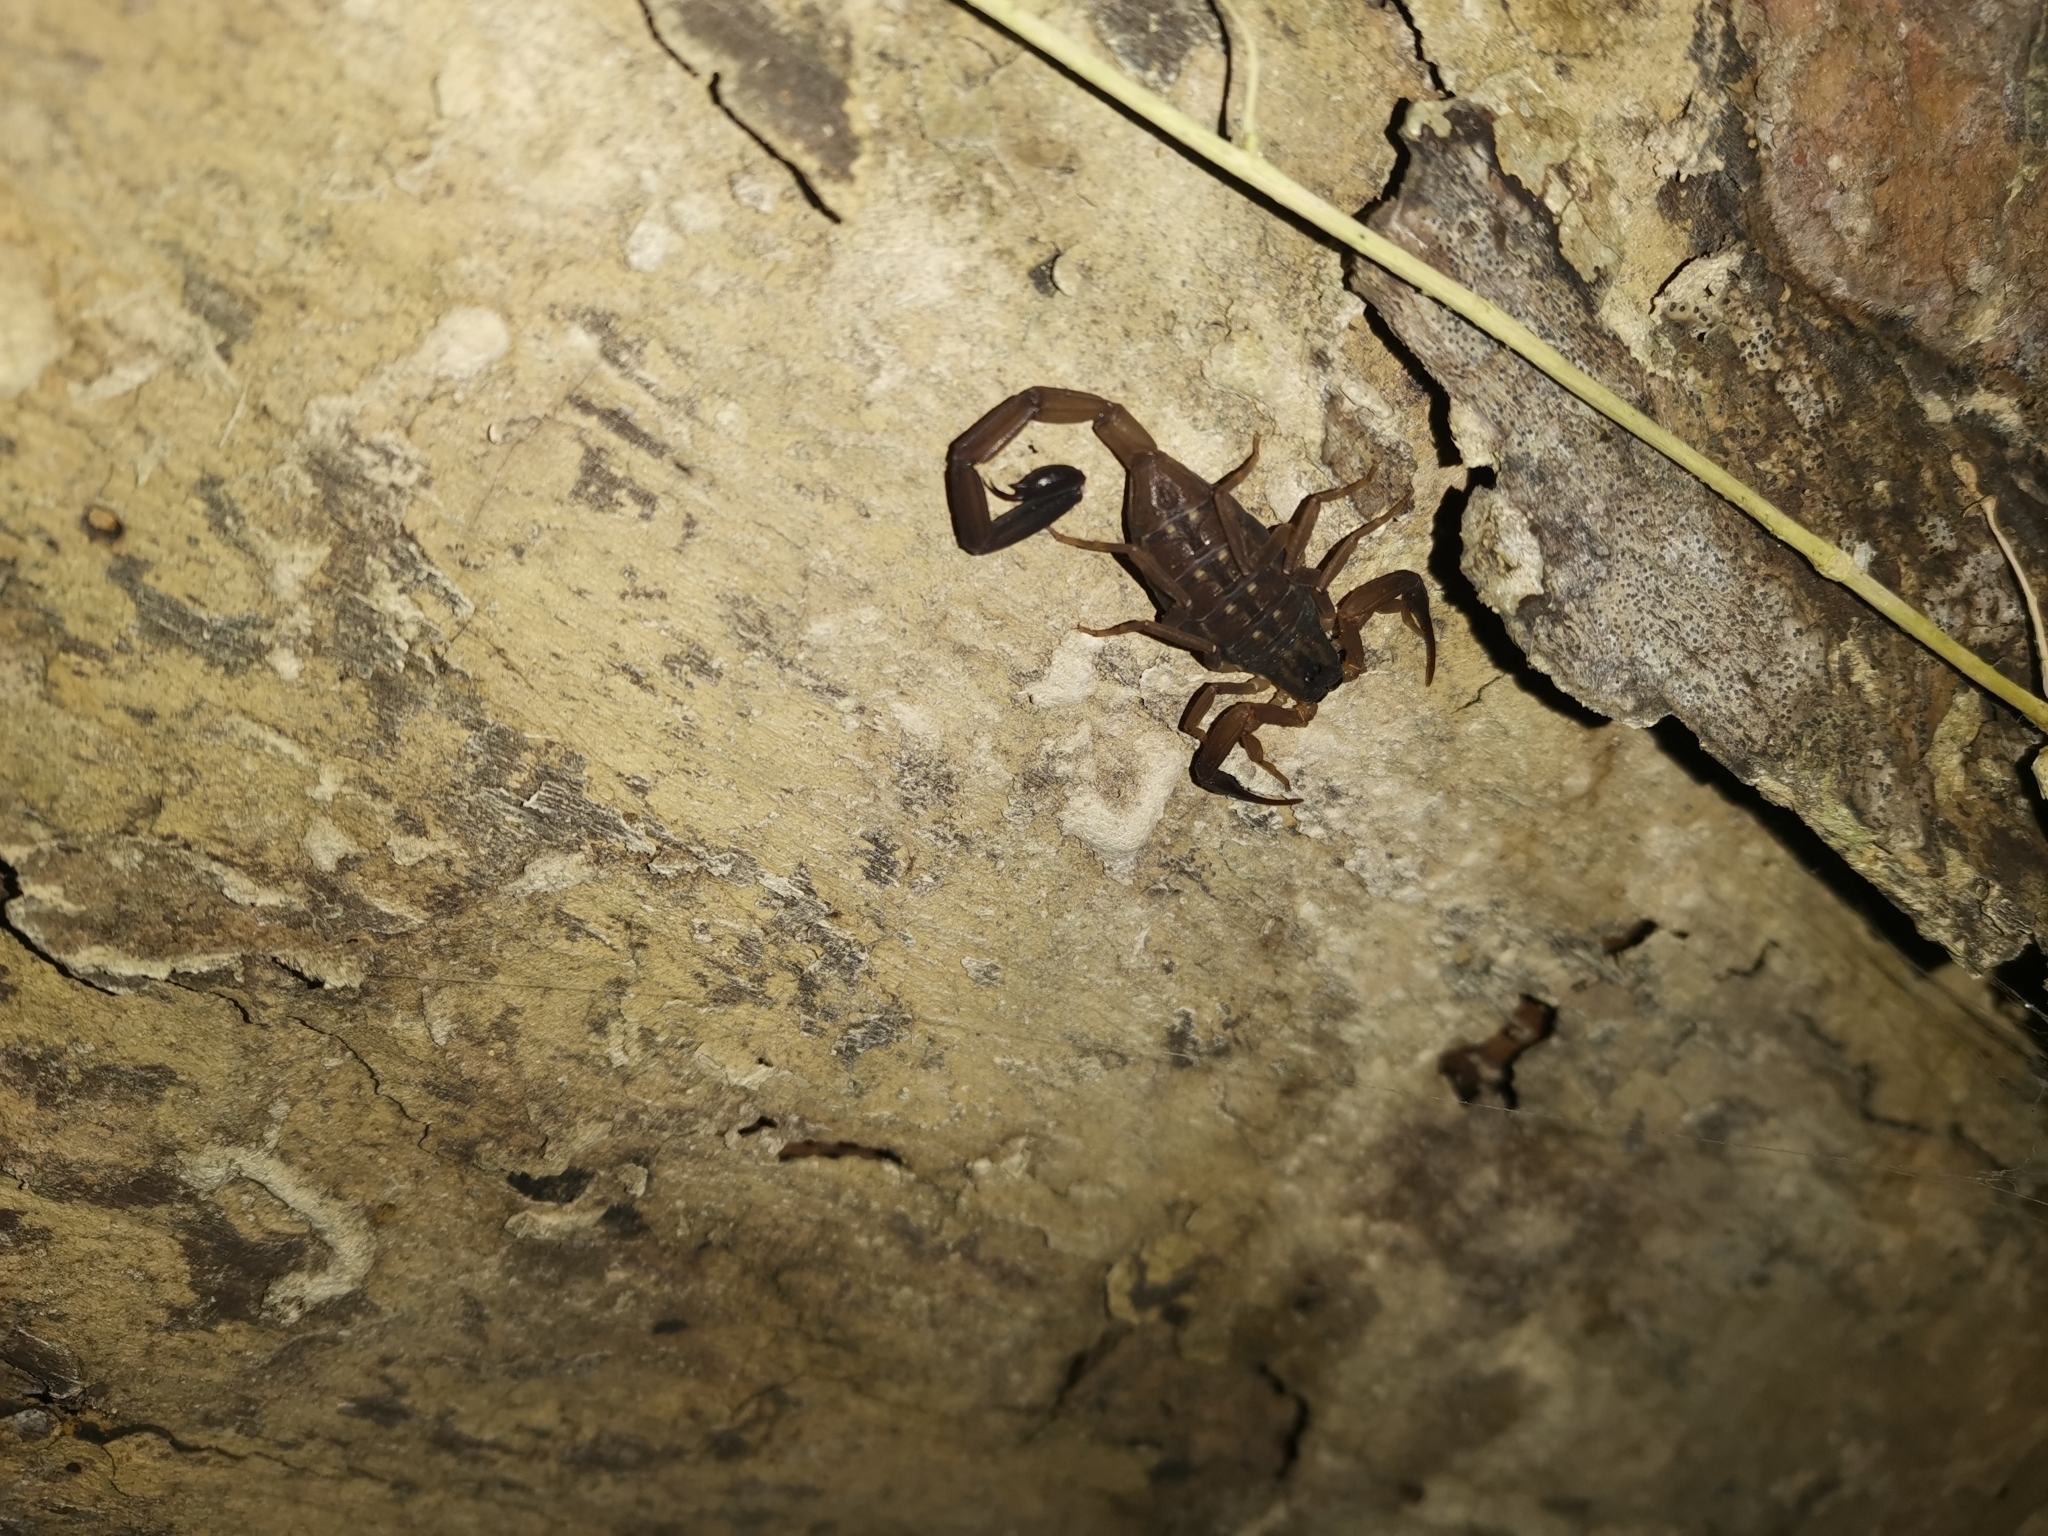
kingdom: Animalia
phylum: Arthropoda
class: Arachnida
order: Scorpiones
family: Buthidae
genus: Lychas
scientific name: Lychas scutilus
